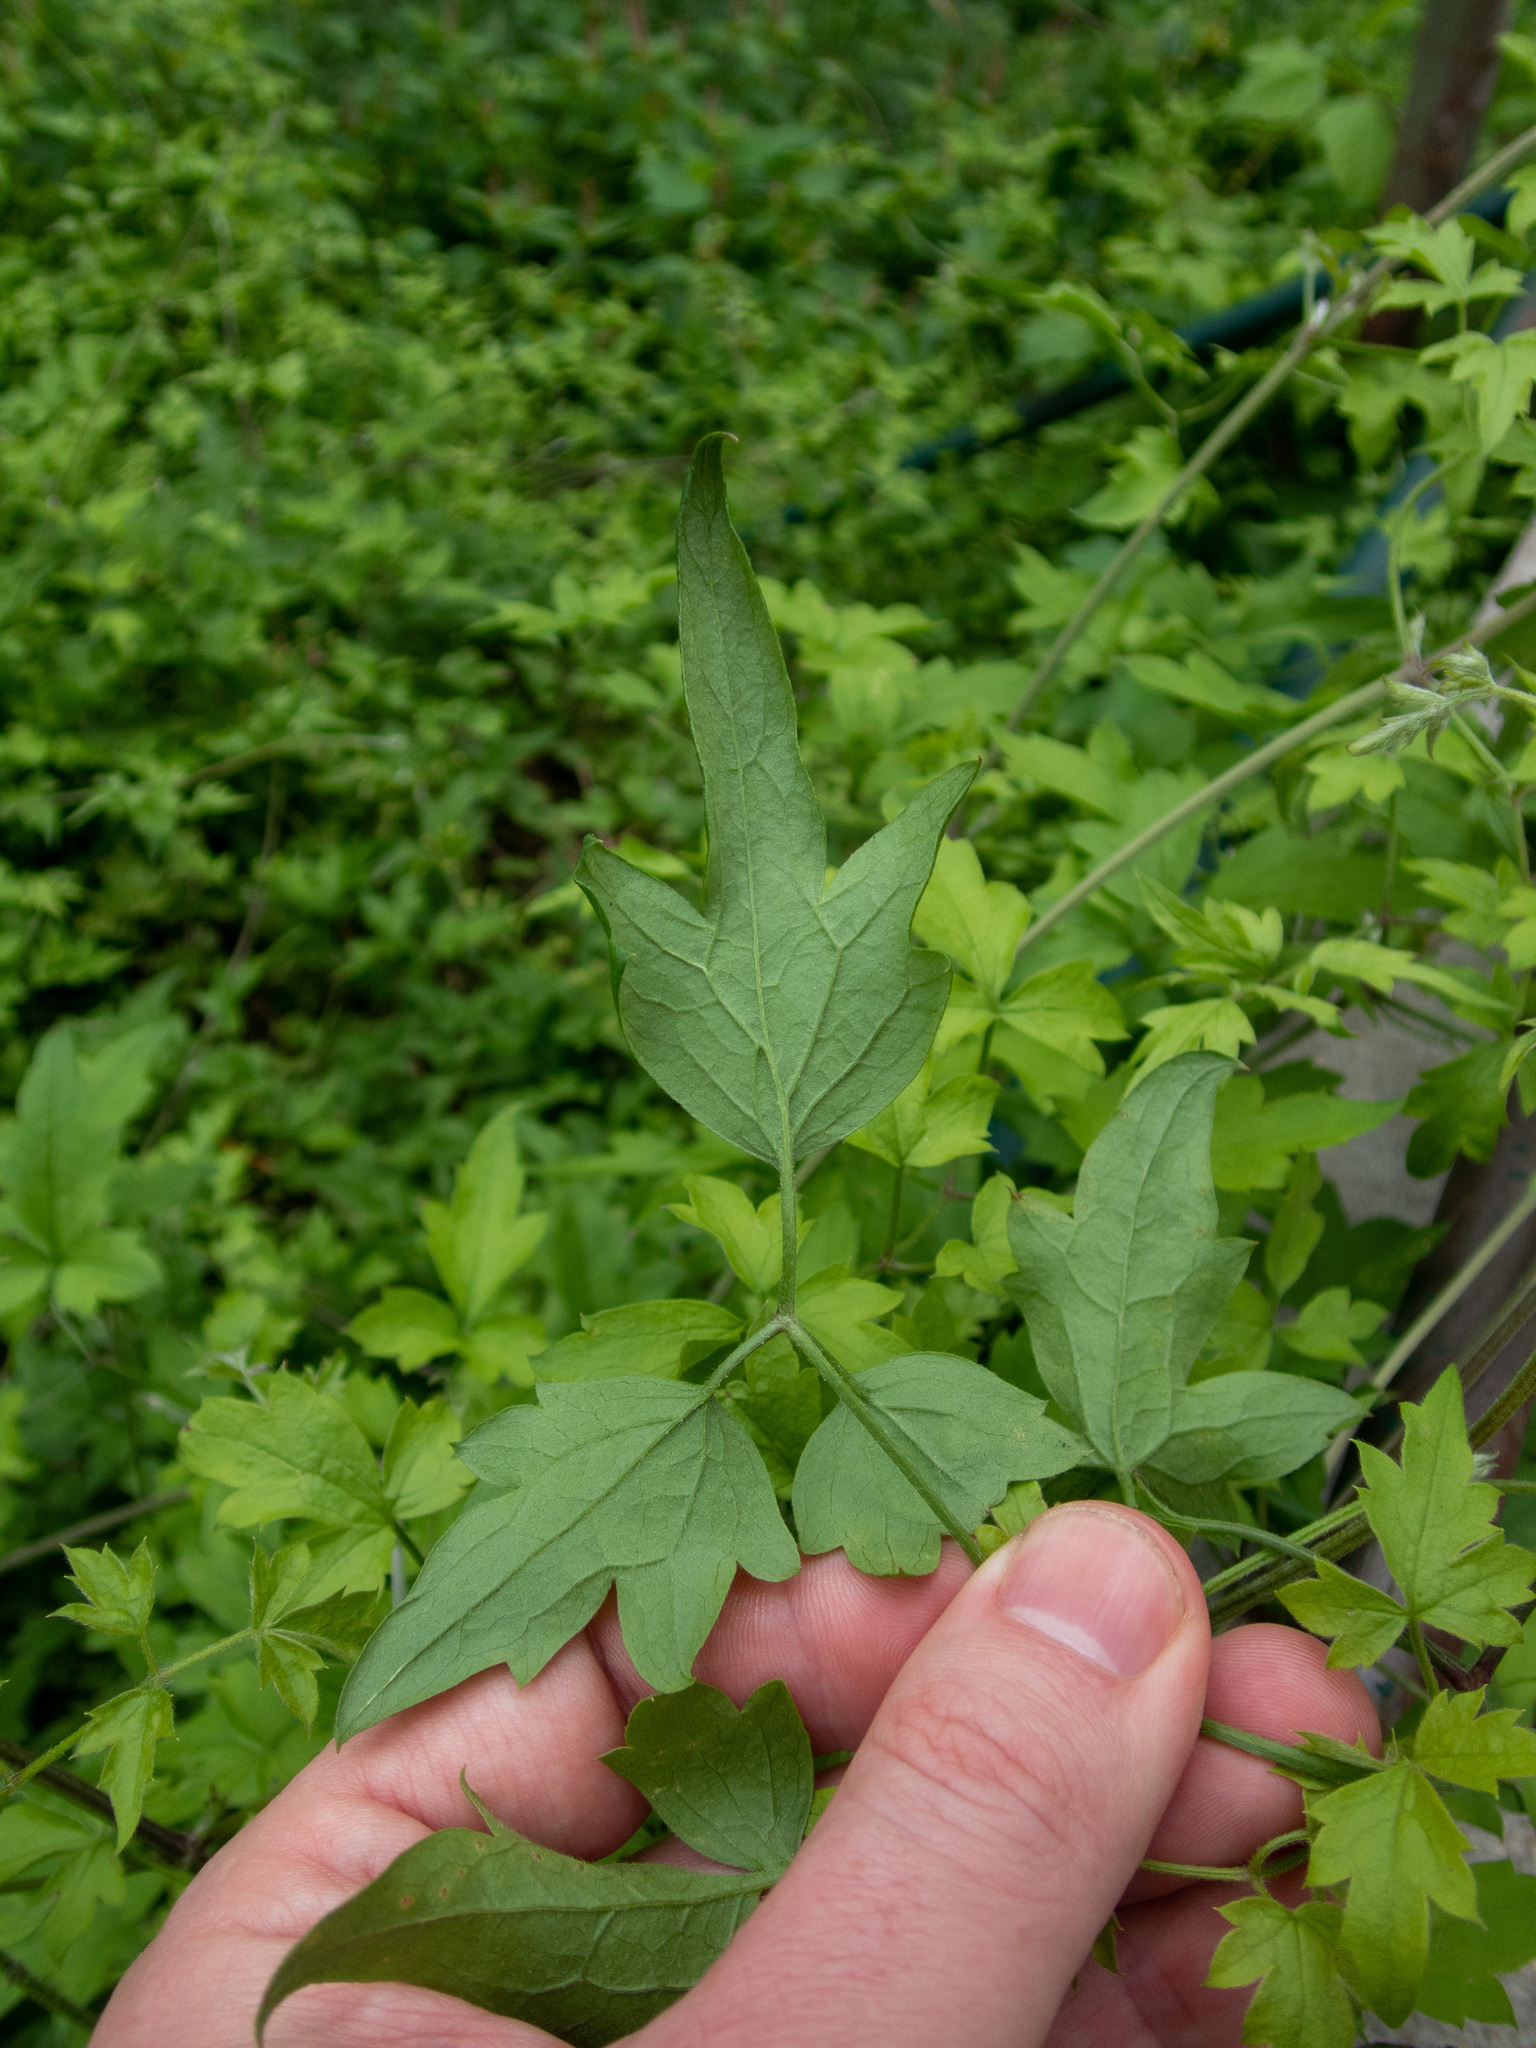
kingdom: Plantae
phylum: Tracheophyta
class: Magnoliopsida
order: Ranunculales
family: Ranunculaceae
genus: Clematis
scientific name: Clematis drummondii
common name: Texas virgin's bower
